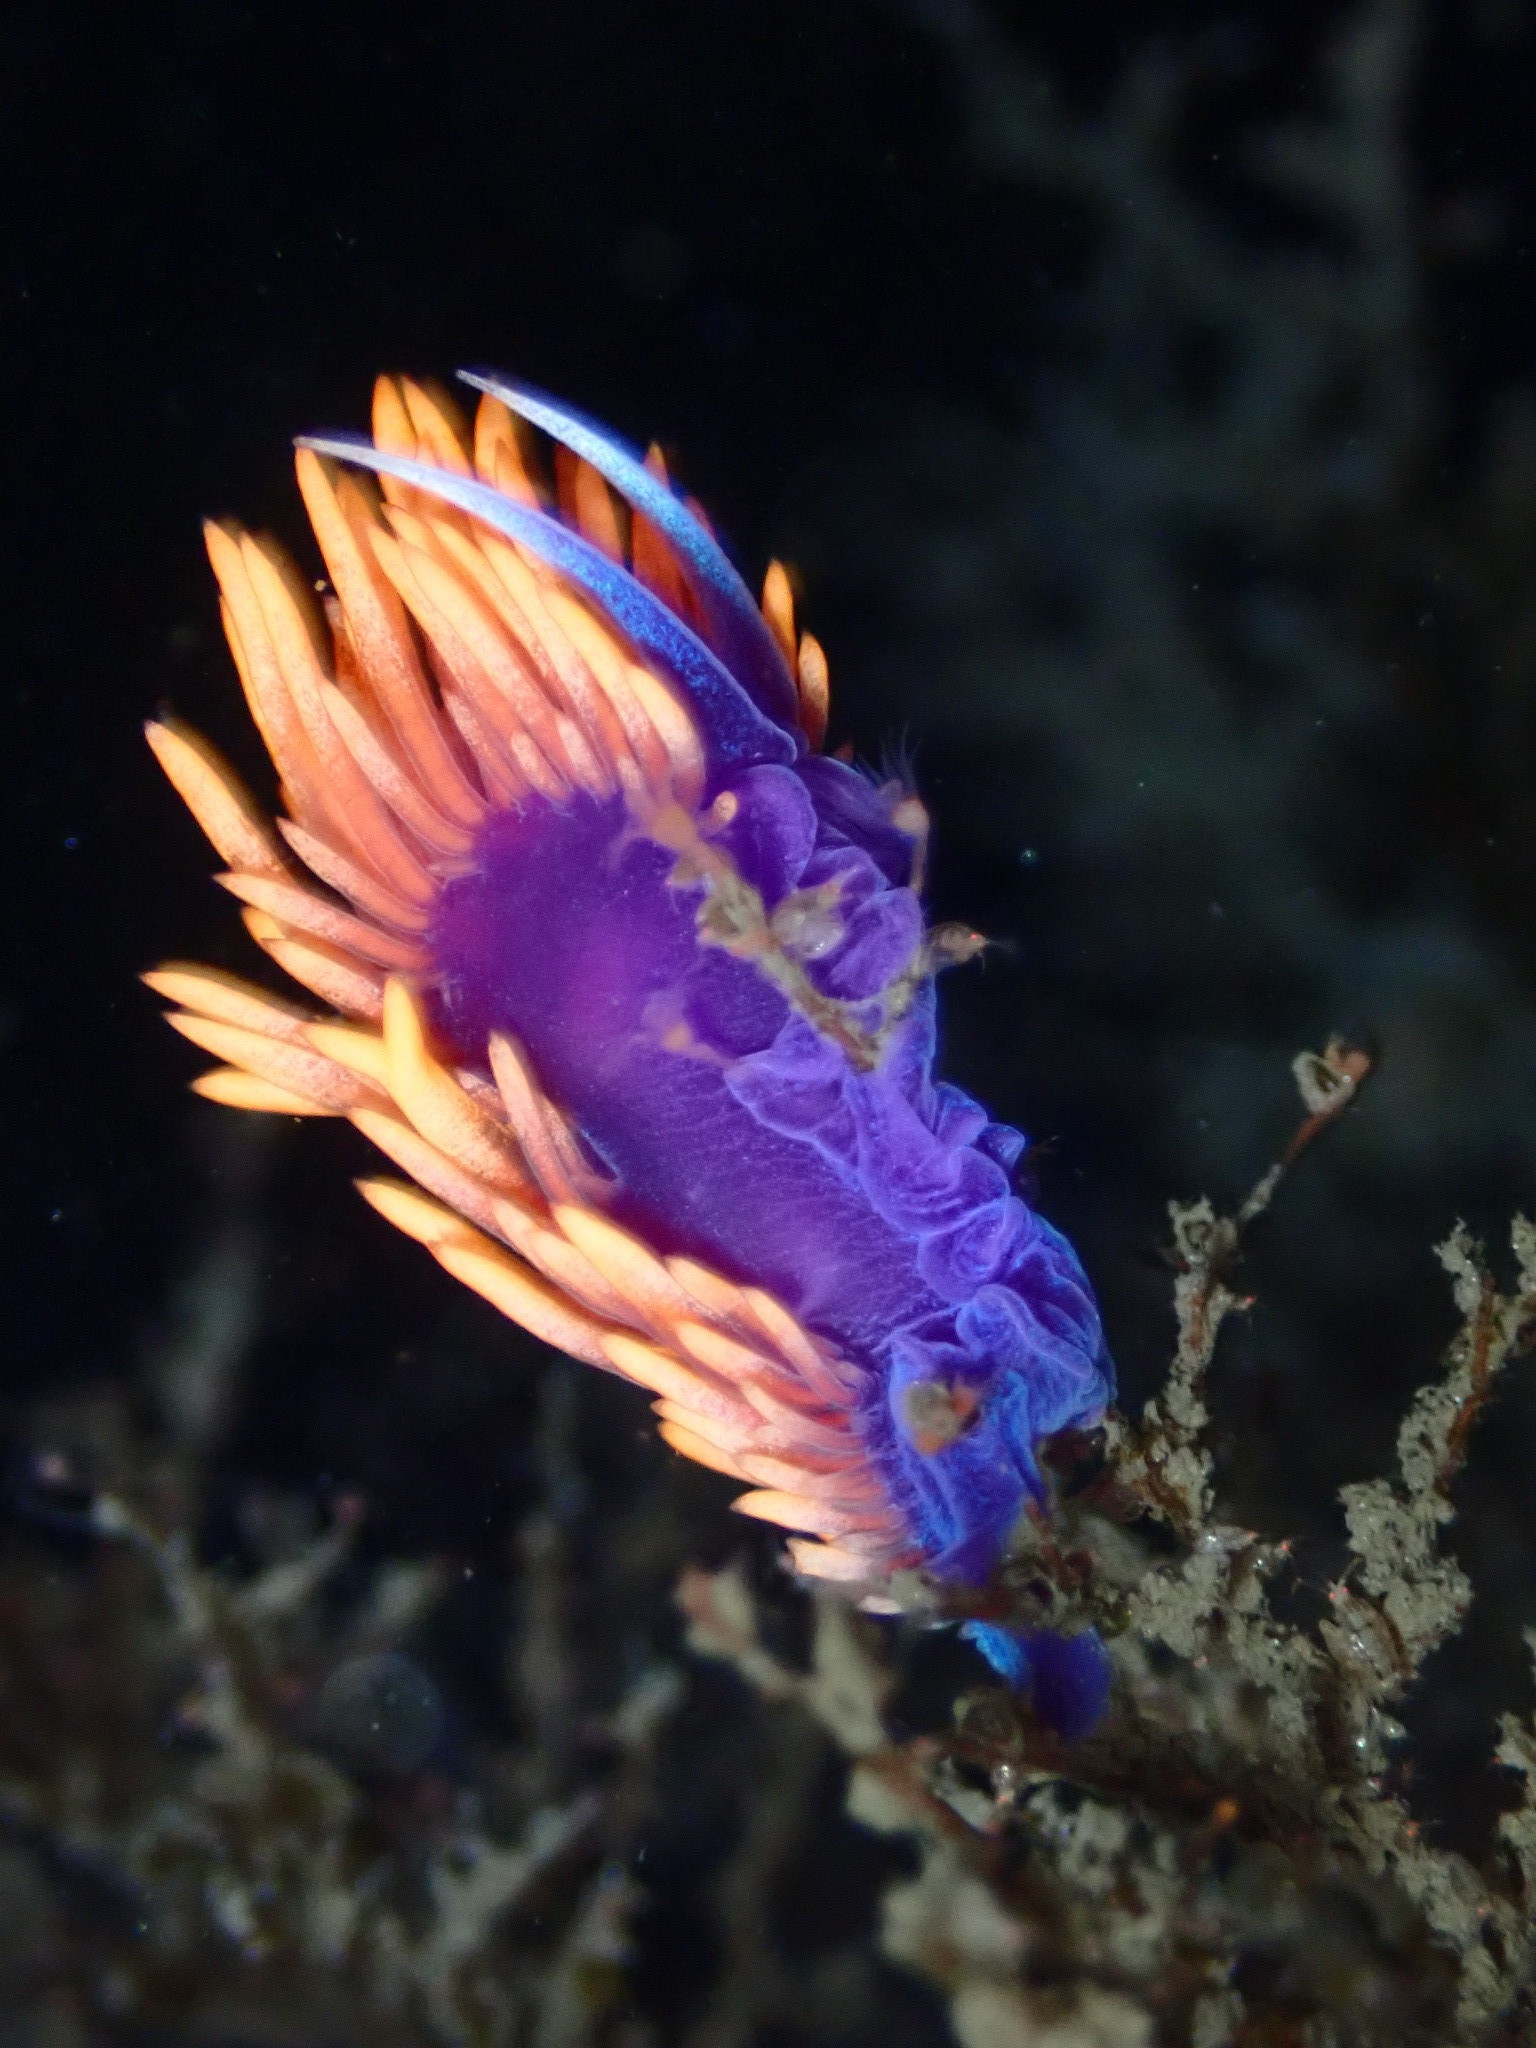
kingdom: Animalia
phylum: Mollusca
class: Gastropoda
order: Nudibranchia
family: Flabellinopsidae
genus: Flabellinopsis
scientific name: Flabellinopsis iodinea
